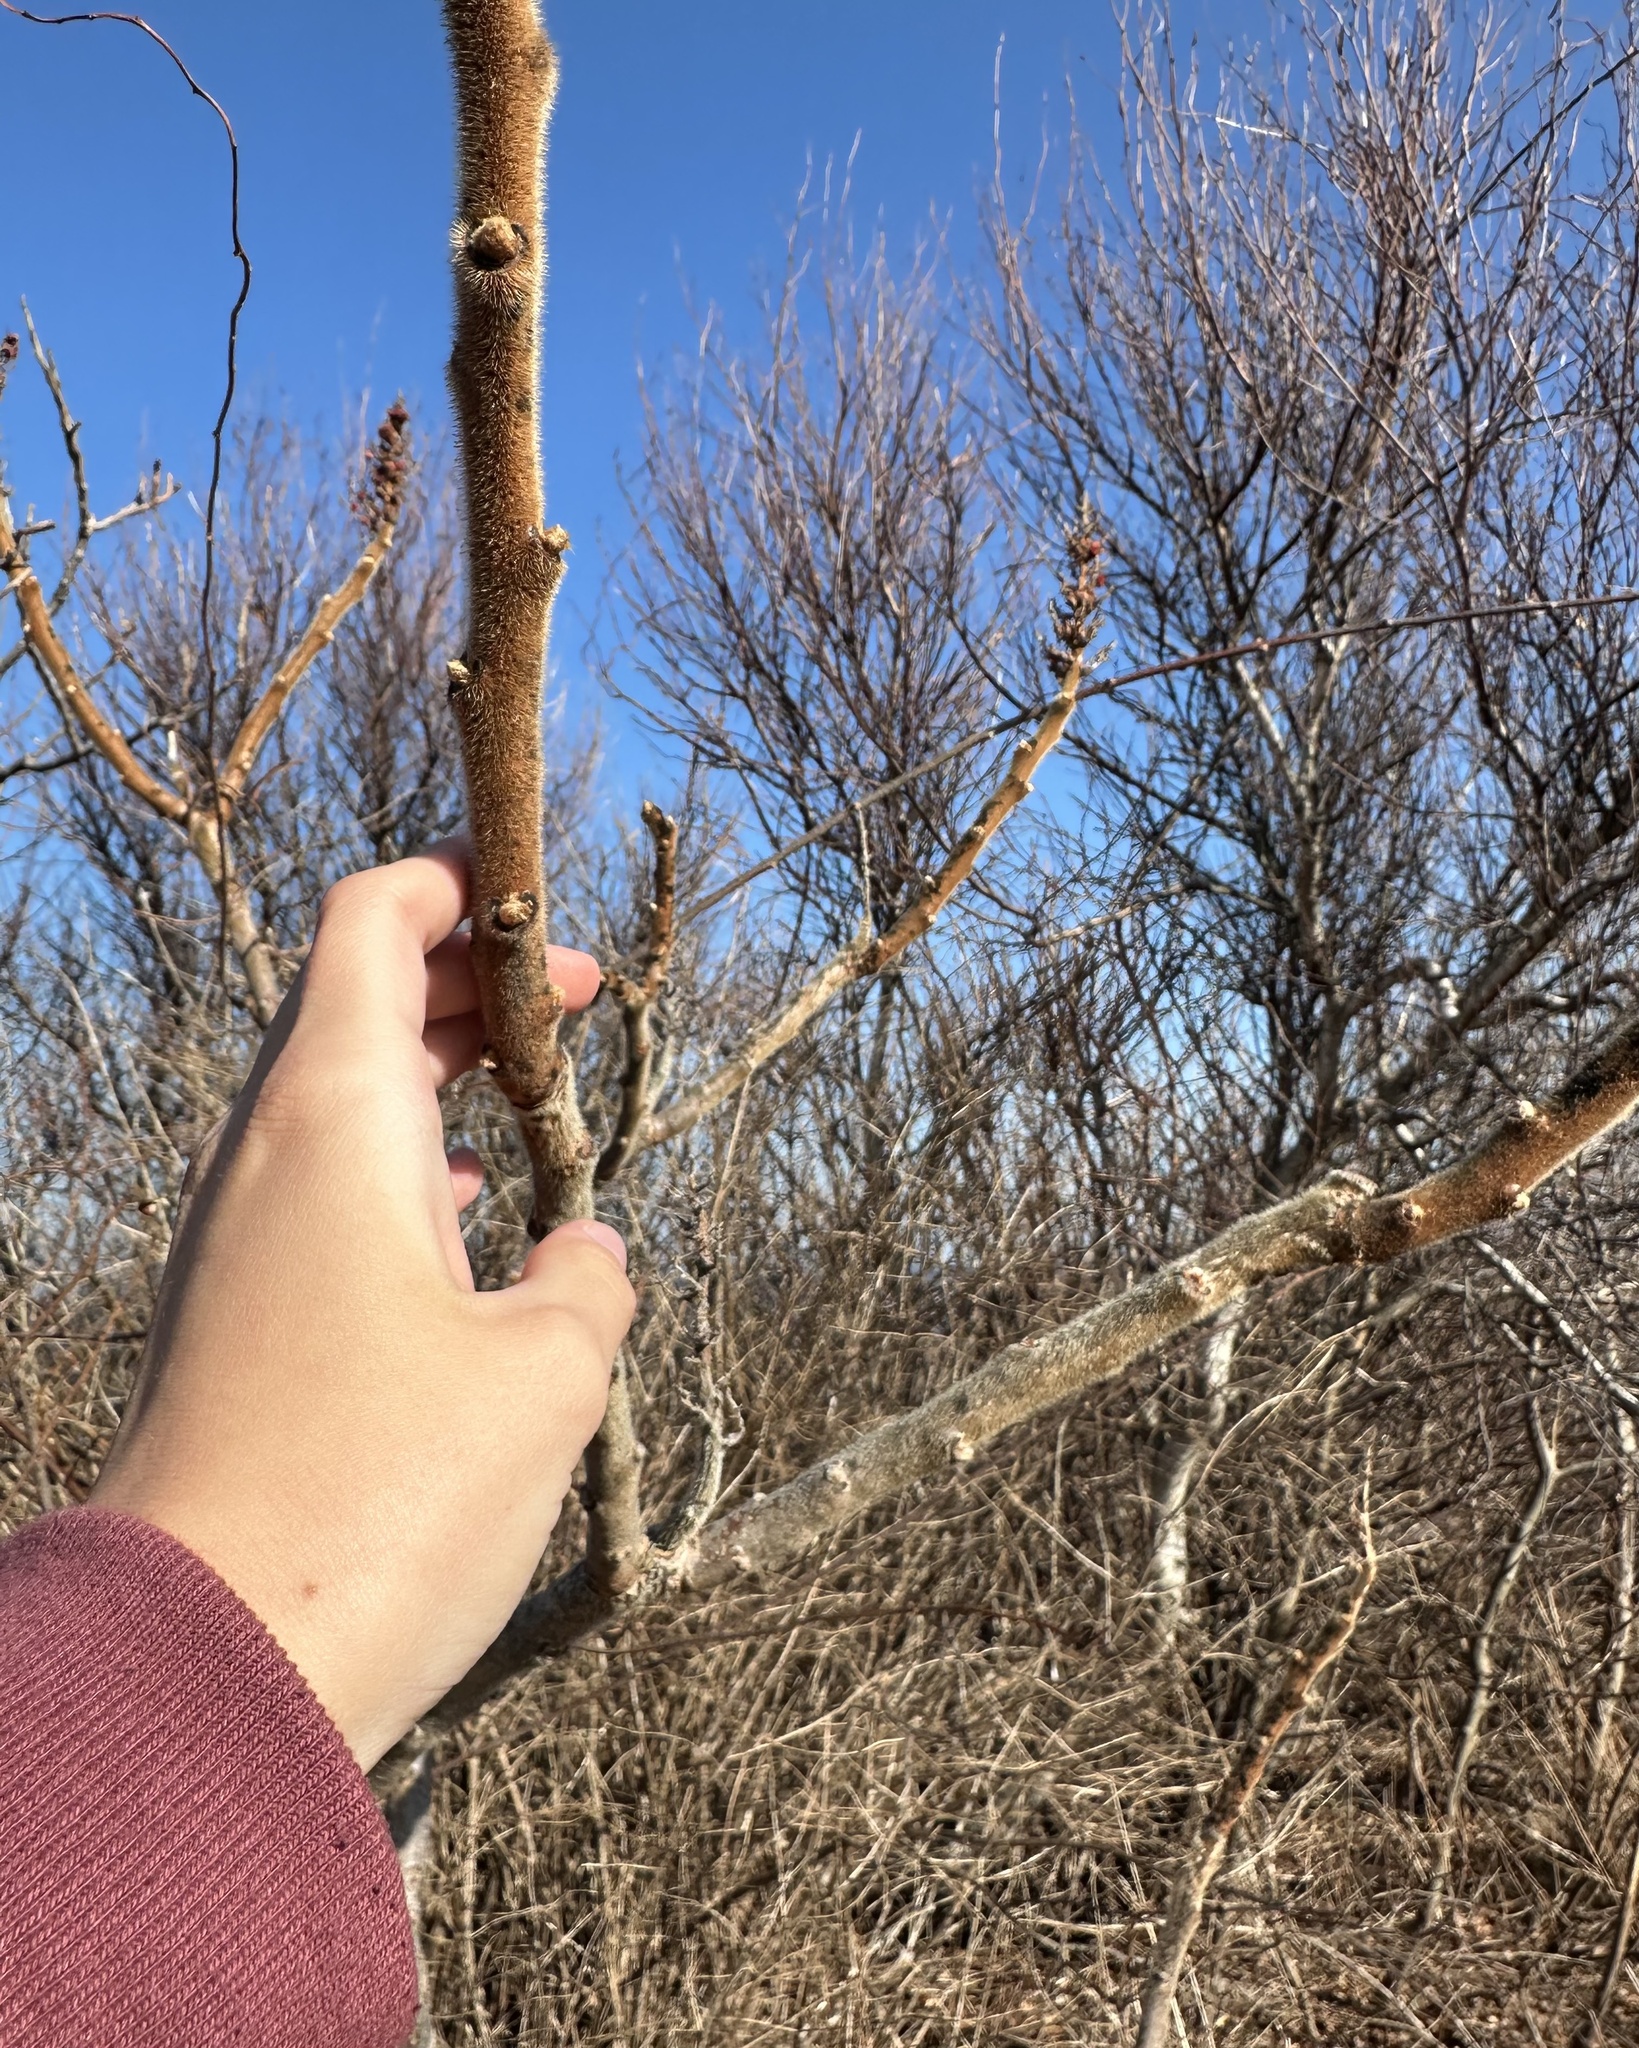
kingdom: Plantae
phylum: Tracheophyta
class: Magnoliopsida
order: Sapindales
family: Anacardiaceae
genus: Rhus
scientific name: Rhus typhina
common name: Staghorn sumac
